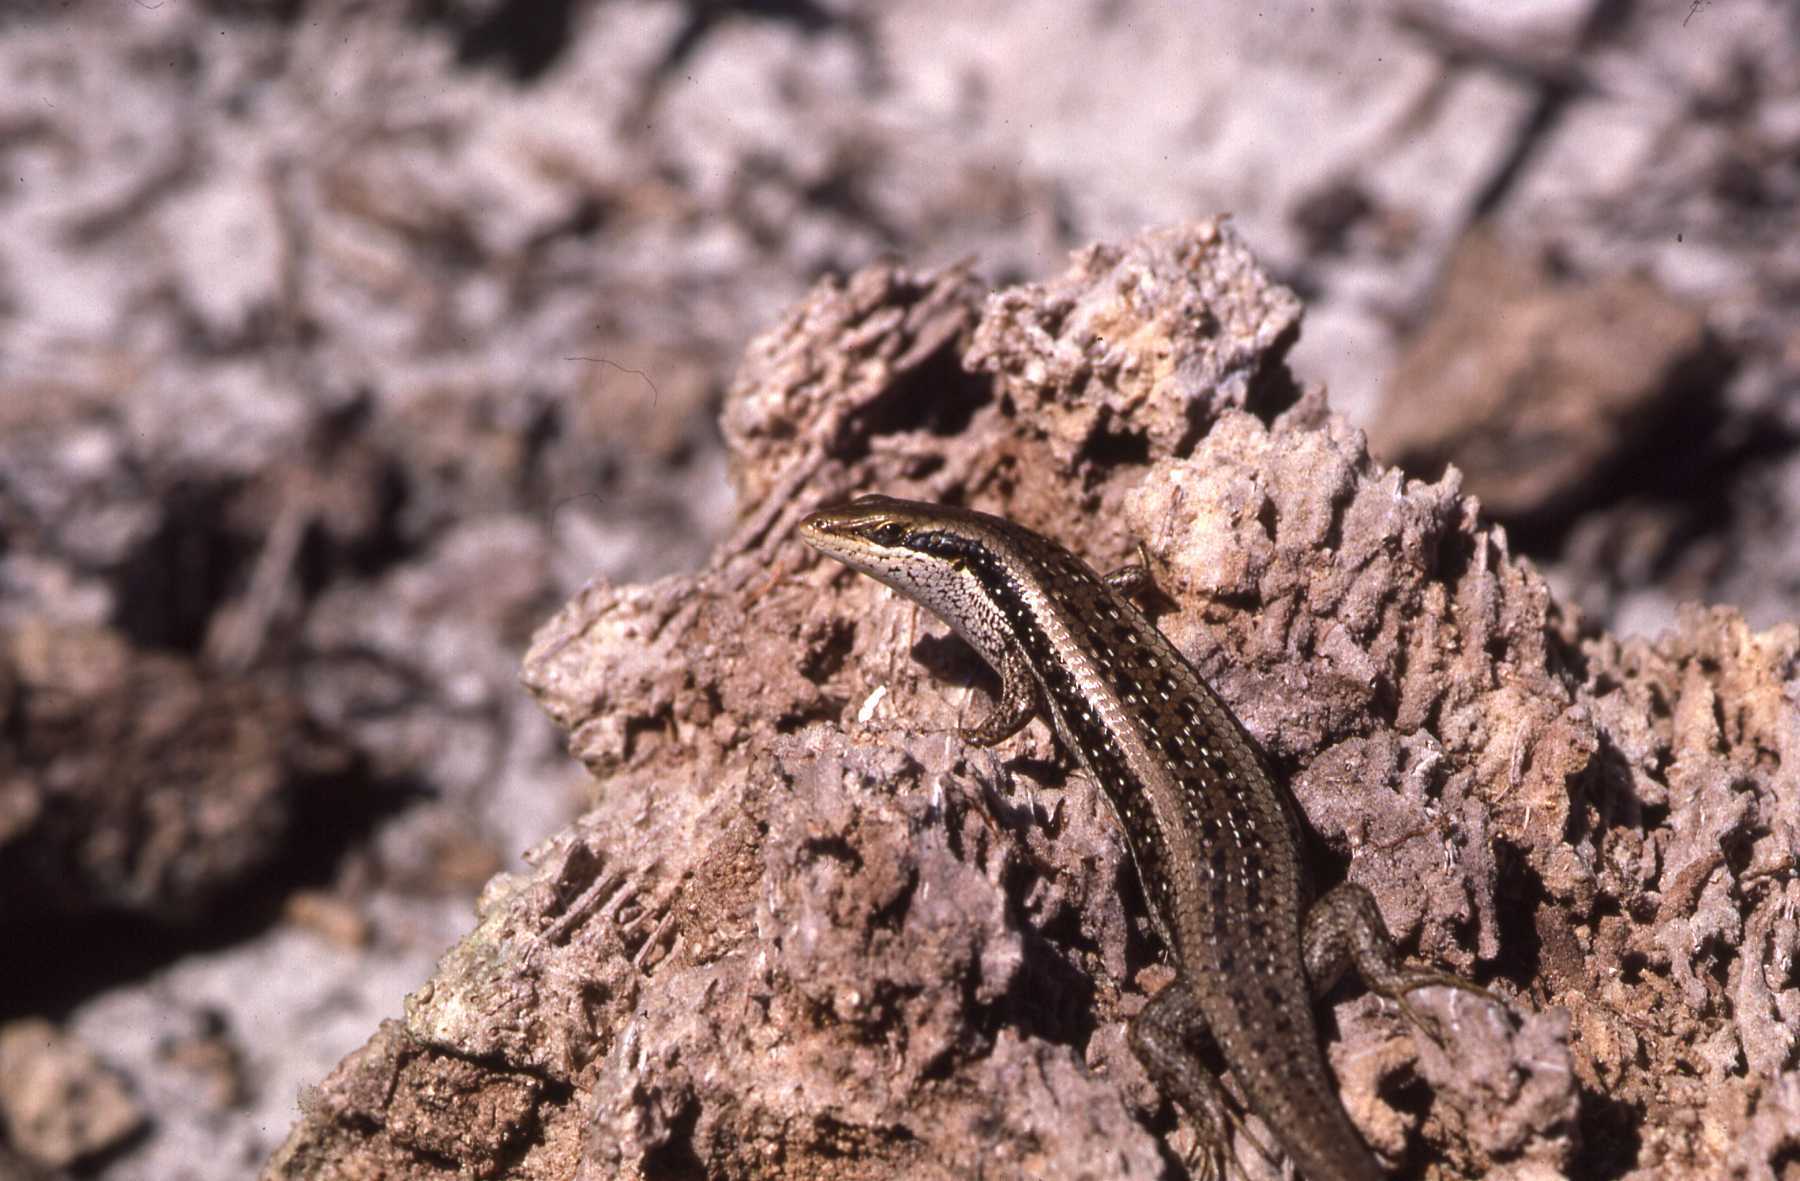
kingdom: Animalia
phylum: Chordata
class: Squamata
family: Scincidae
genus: Trachylepis
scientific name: Trachylepis planifrons
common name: Tree skink
